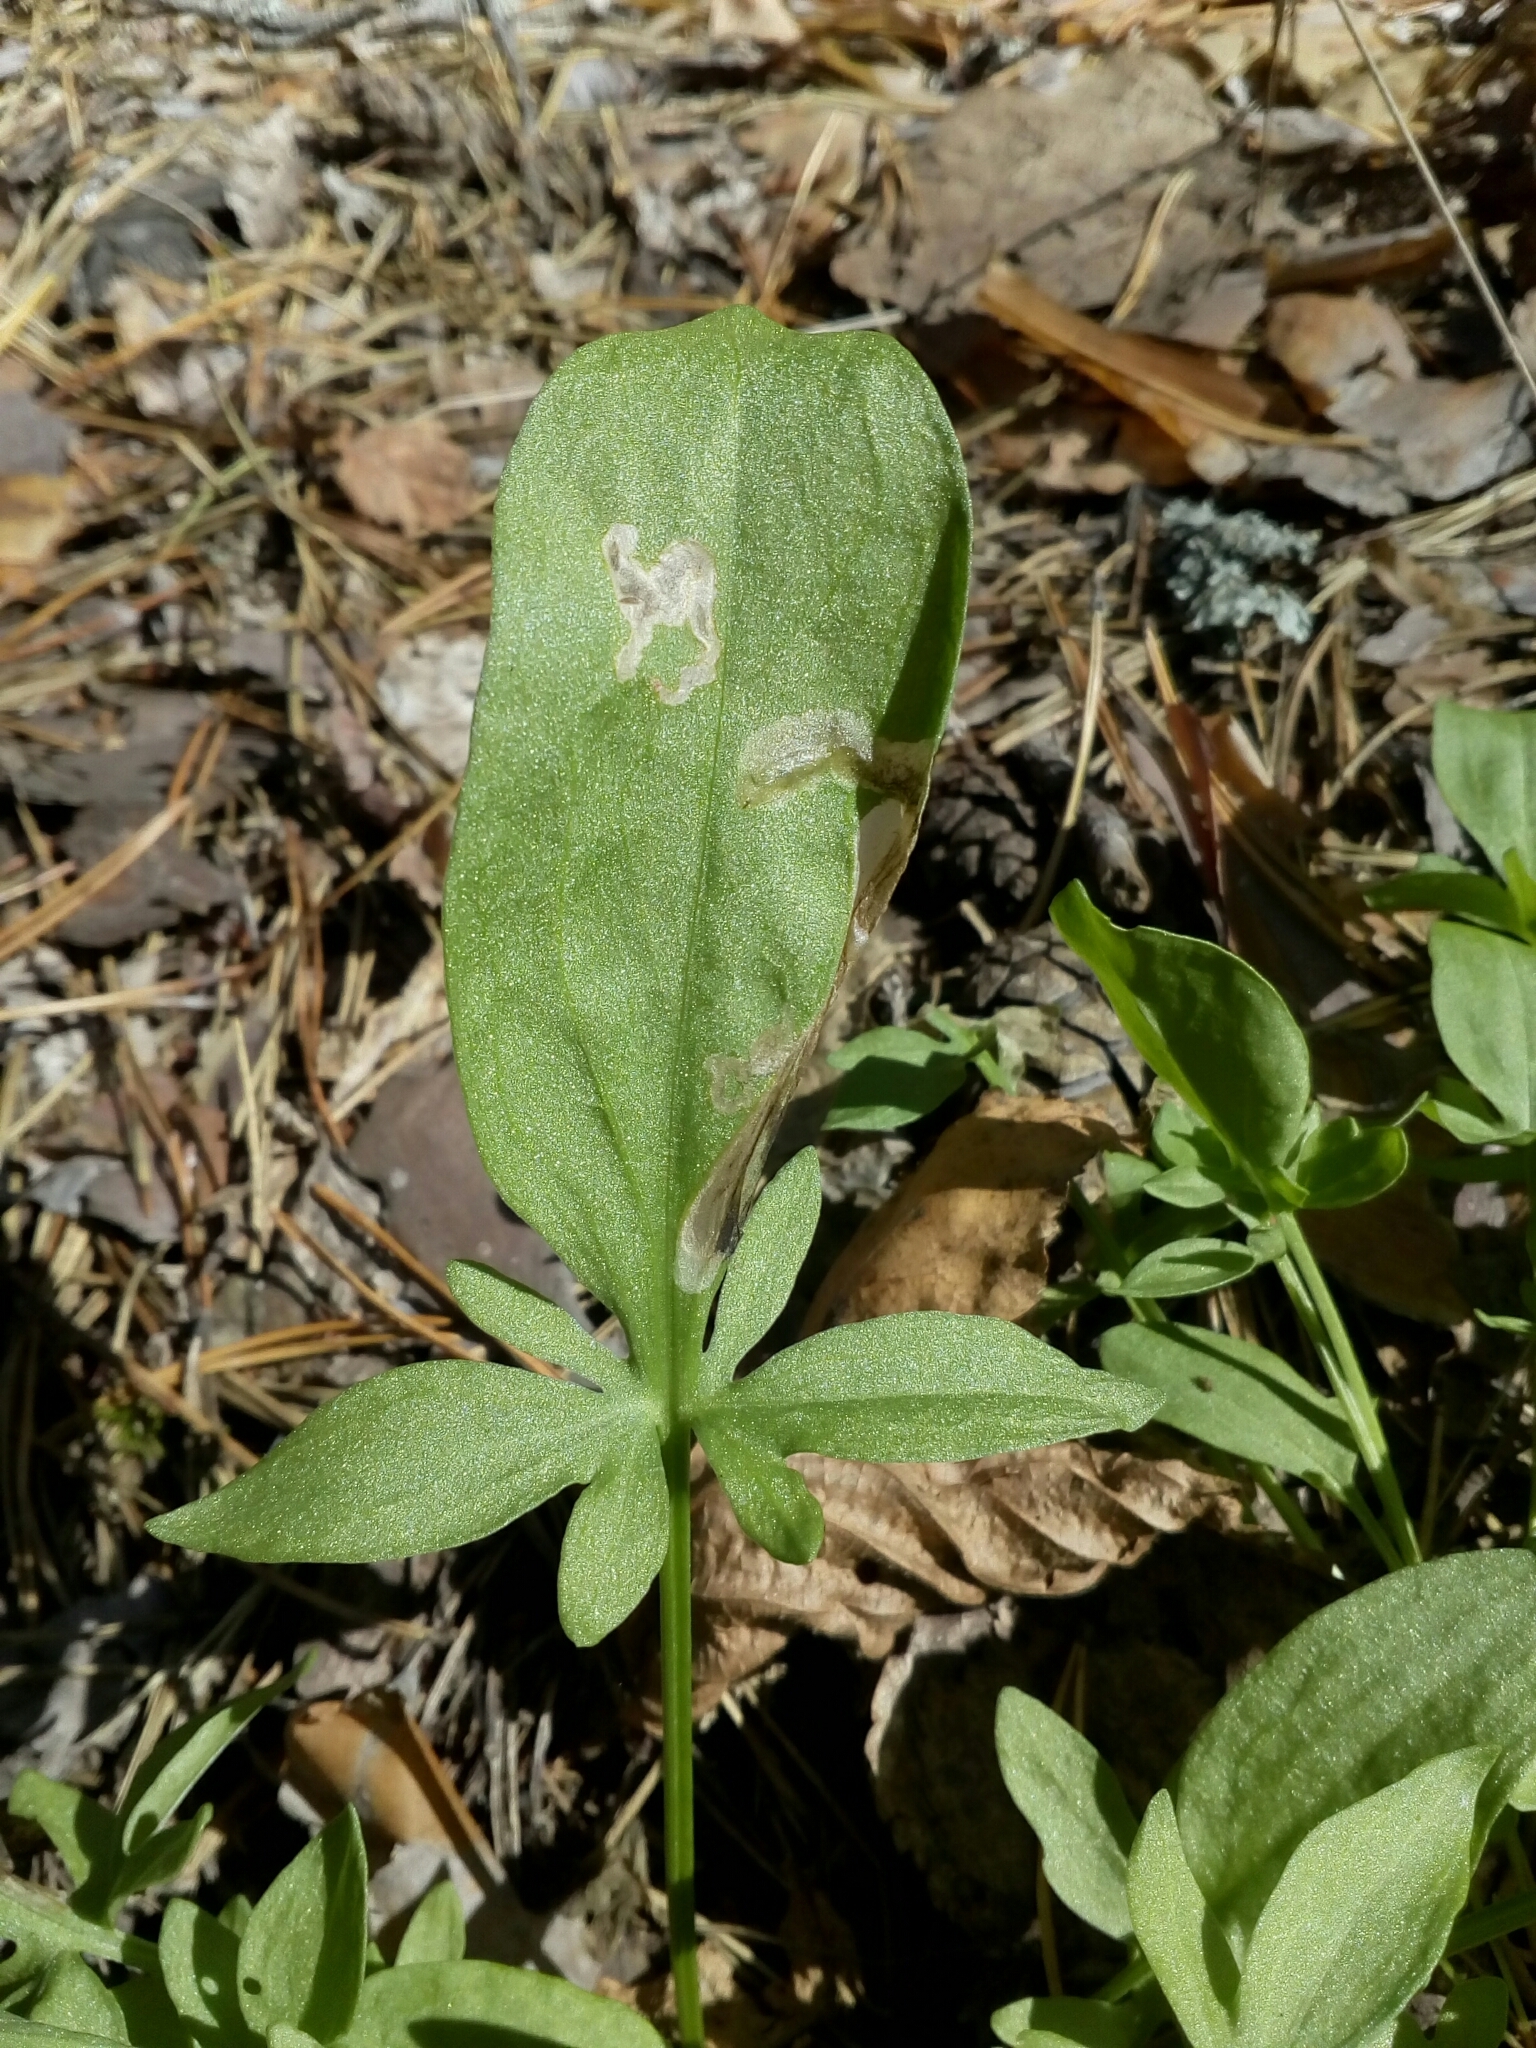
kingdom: Plantae
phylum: Tracheophyta
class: Magnoliopsida
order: Caryophyllales
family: Polygonaceae
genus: Rumex
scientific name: Rumex acetosella
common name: Common sheep sorrel
